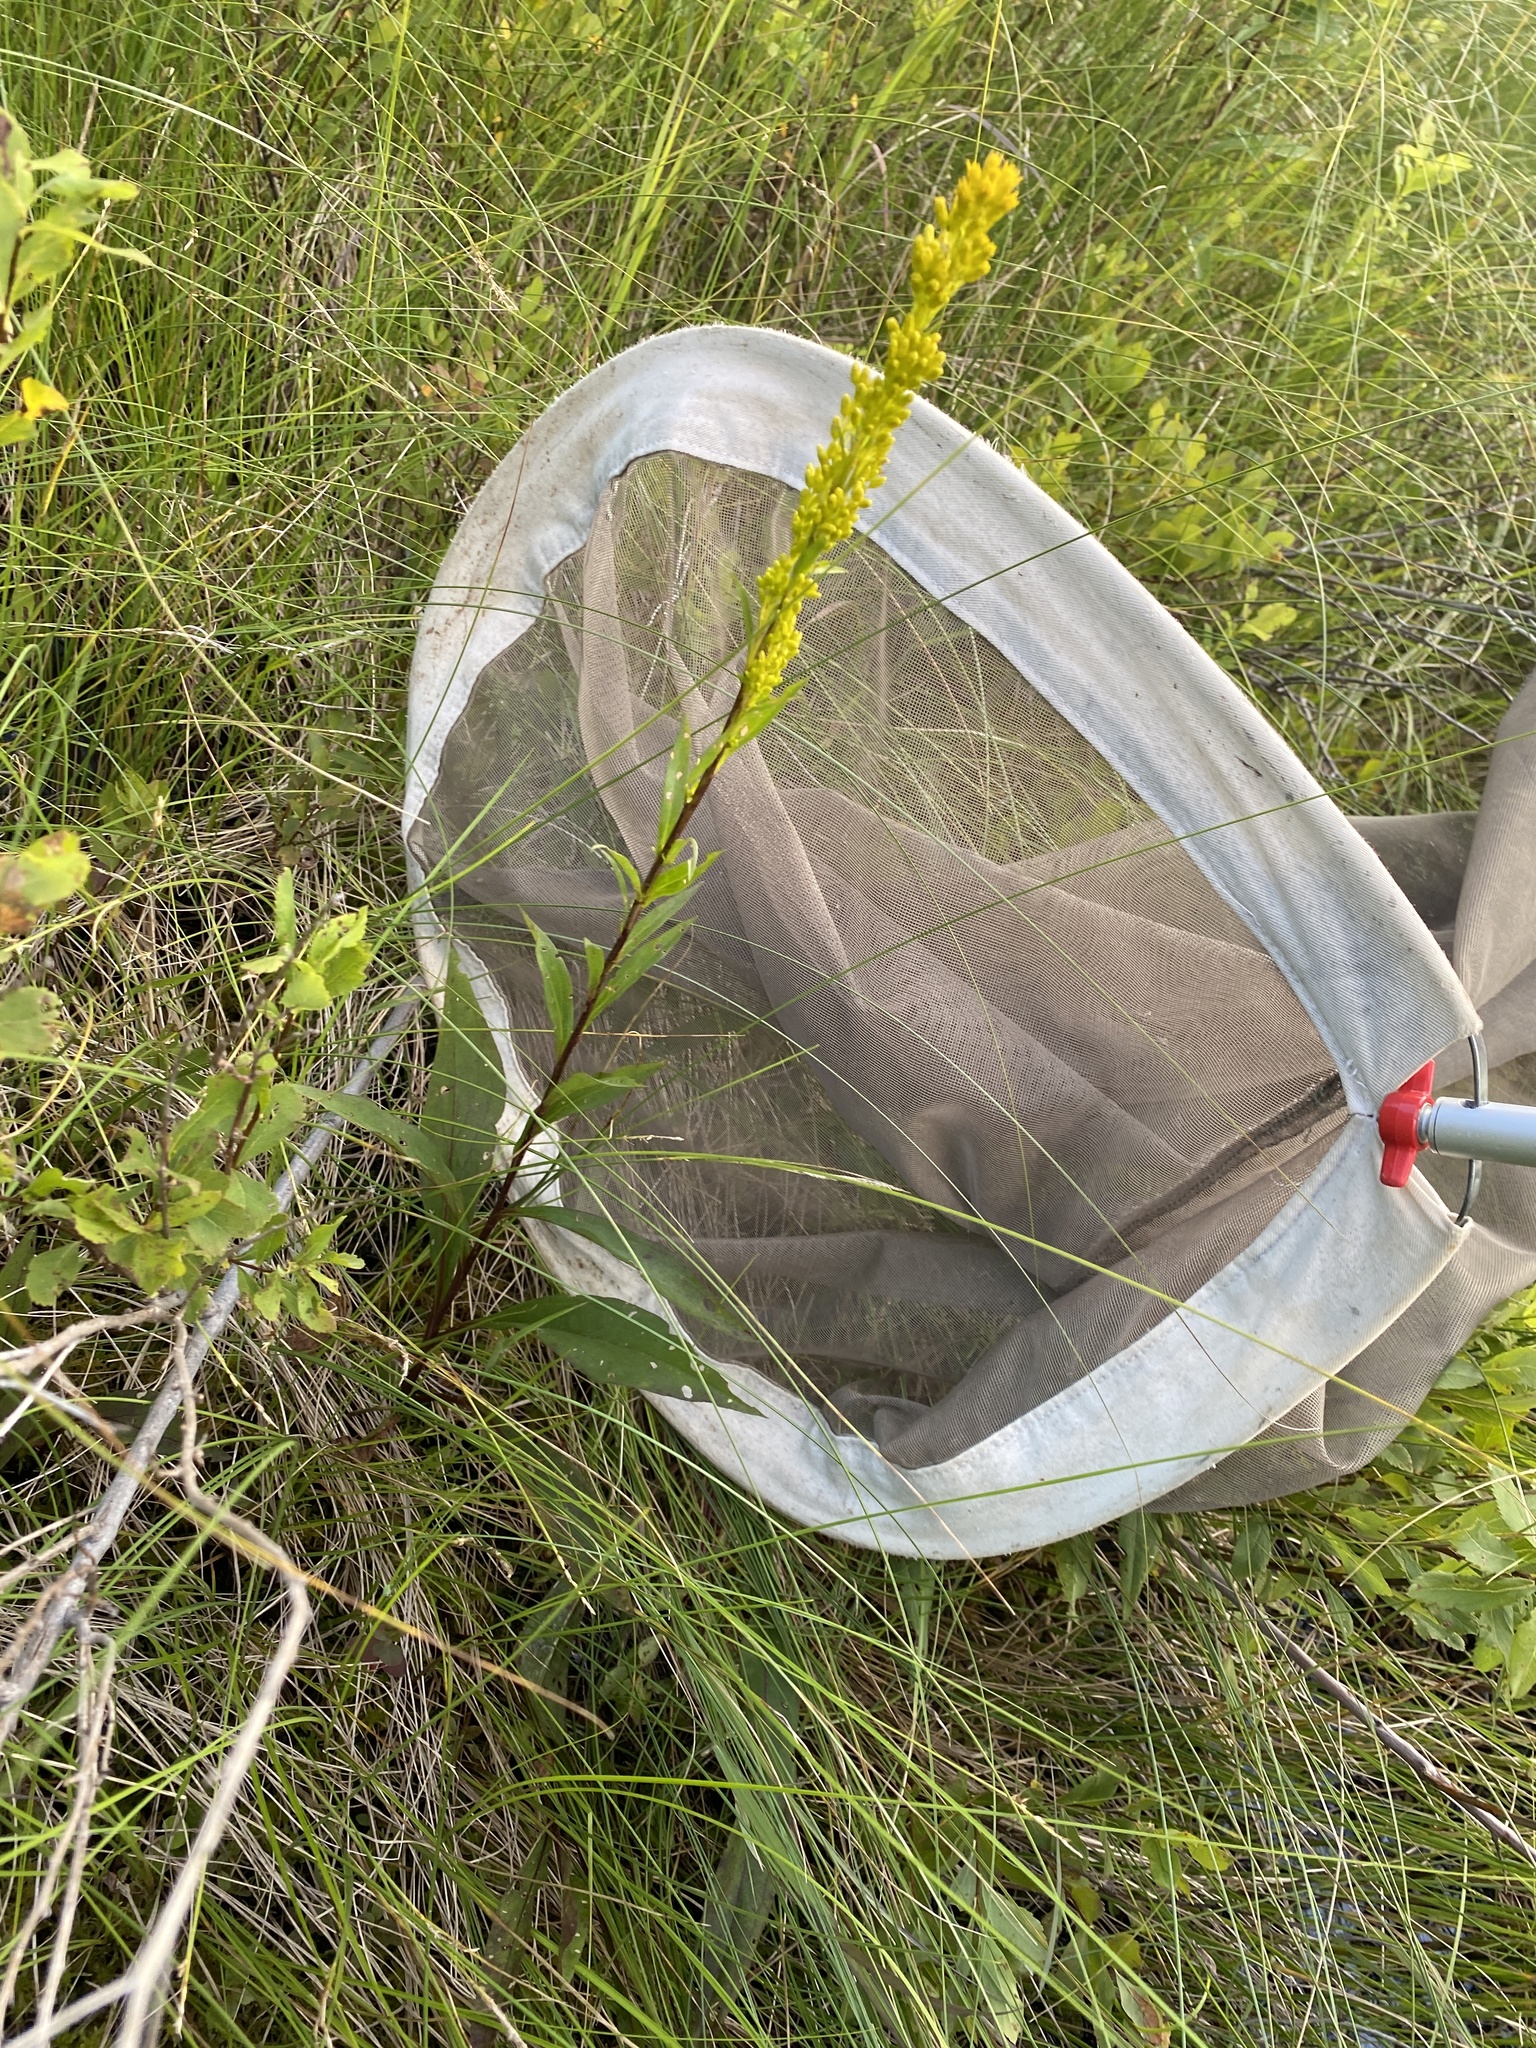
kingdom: Plantae
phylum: Tracheophyta
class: Magnoliopsida
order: Asterales
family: Asteraceae
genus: Solidago
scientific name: Solidago uliginosa
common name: Bog goldenrod
